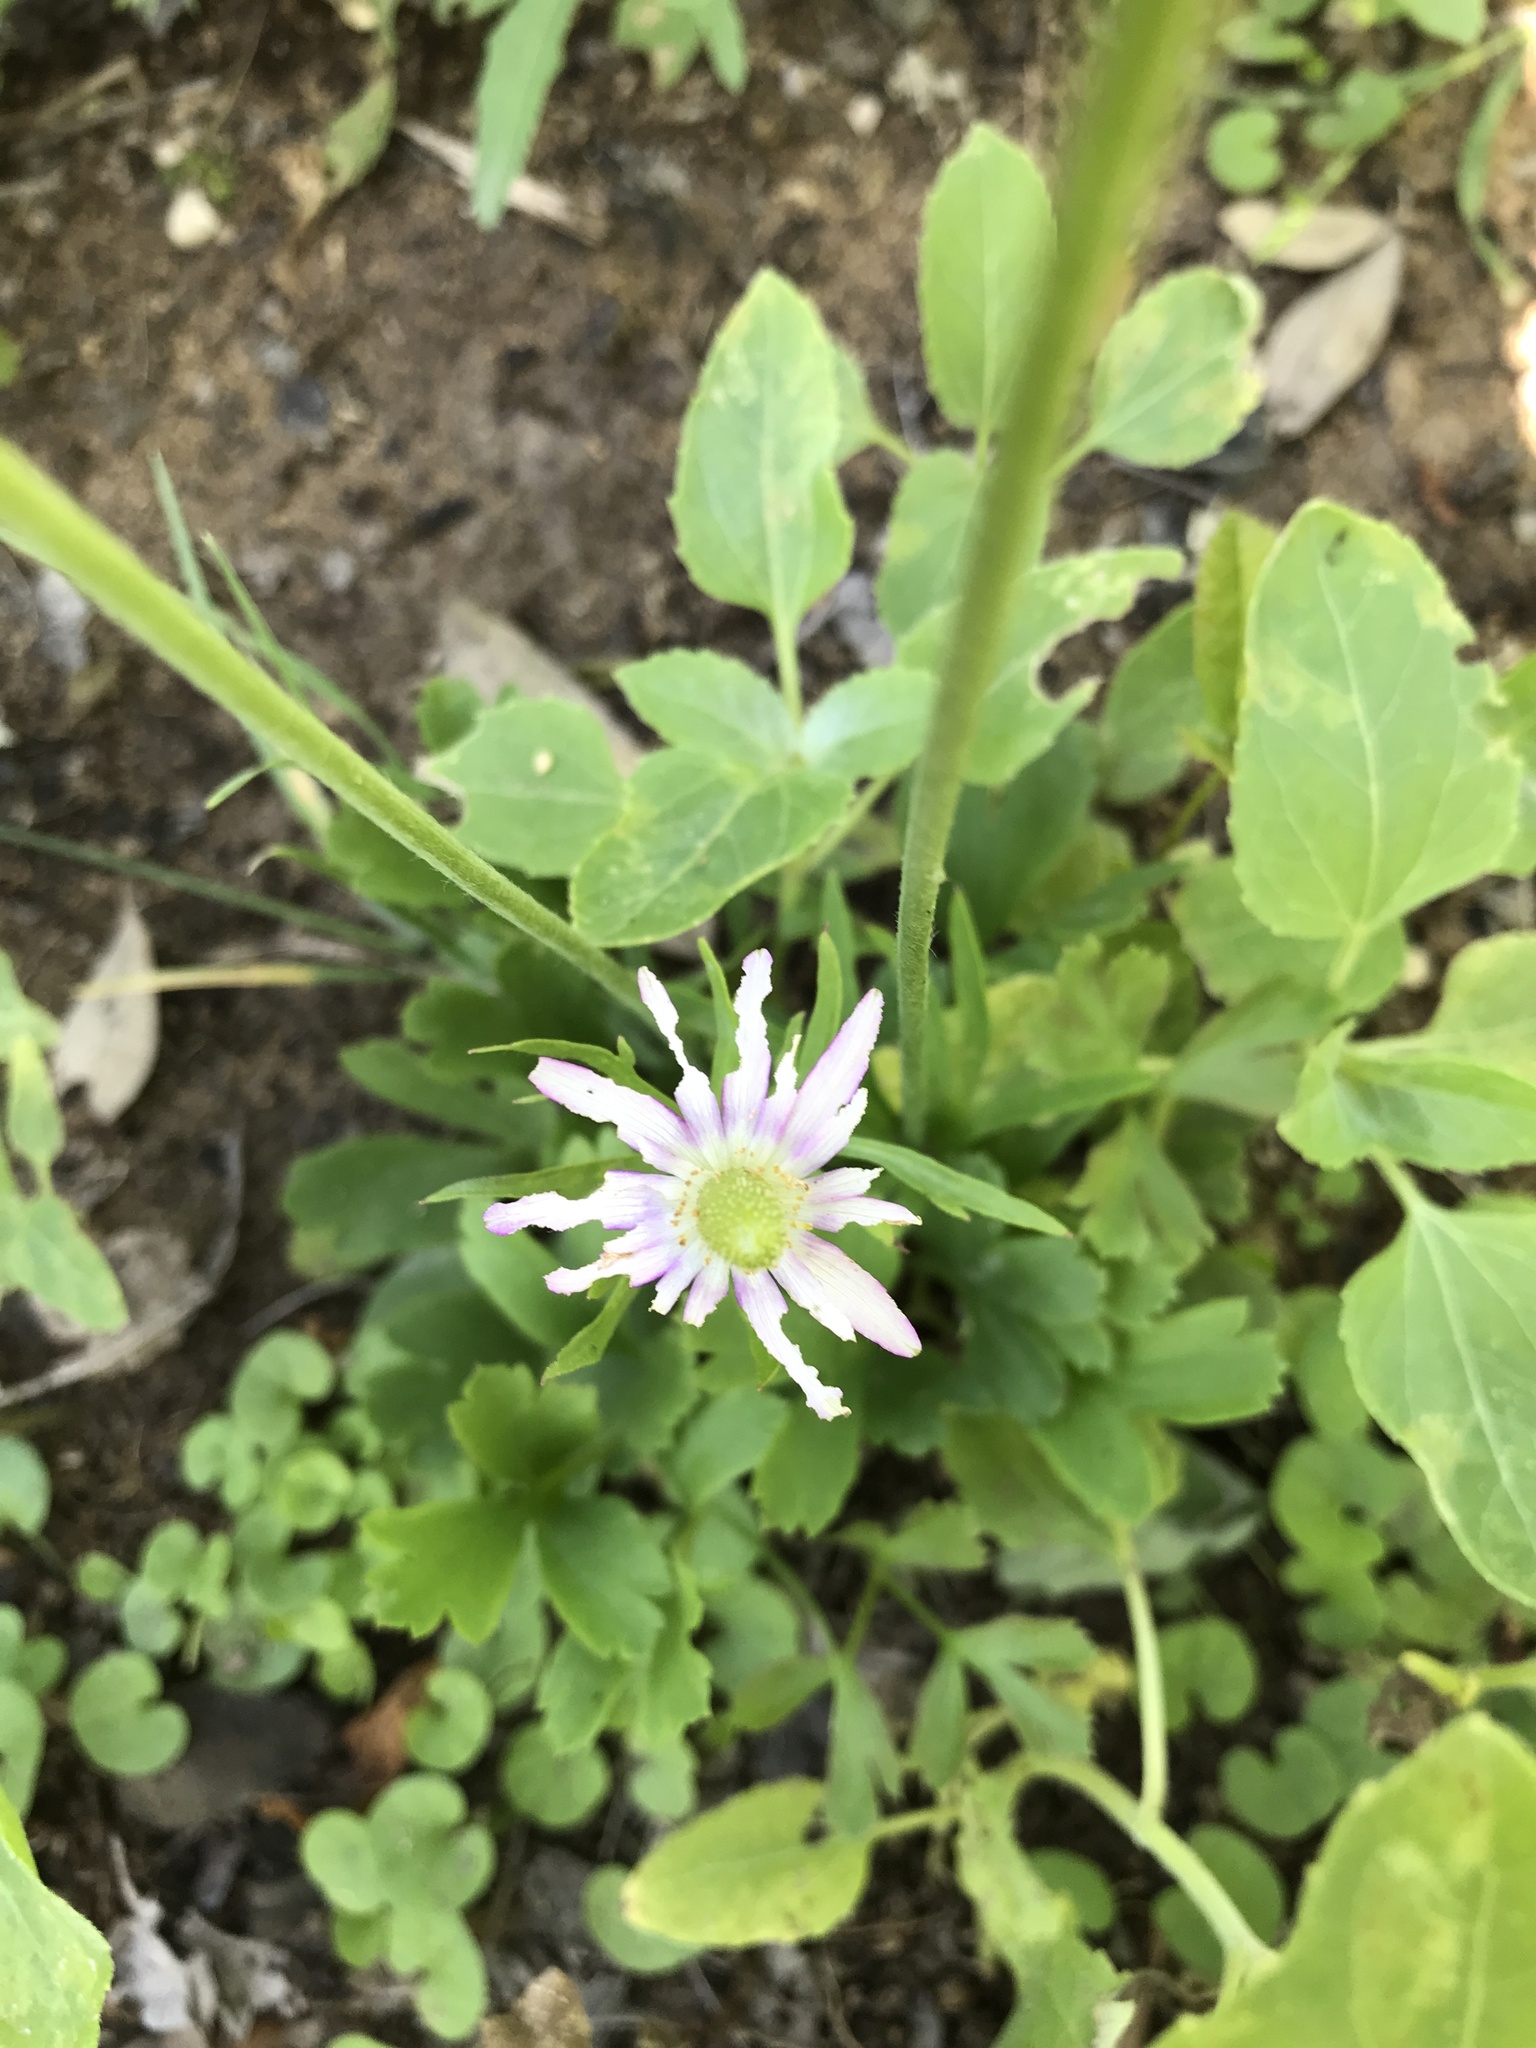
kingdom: Plantae
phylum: Tracheophyta
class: Magnoliopsida
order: Ranunculales
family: Ranunculaceae
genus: Anemone
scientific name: Anemone berlandieri
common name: Ten-petal anemone
